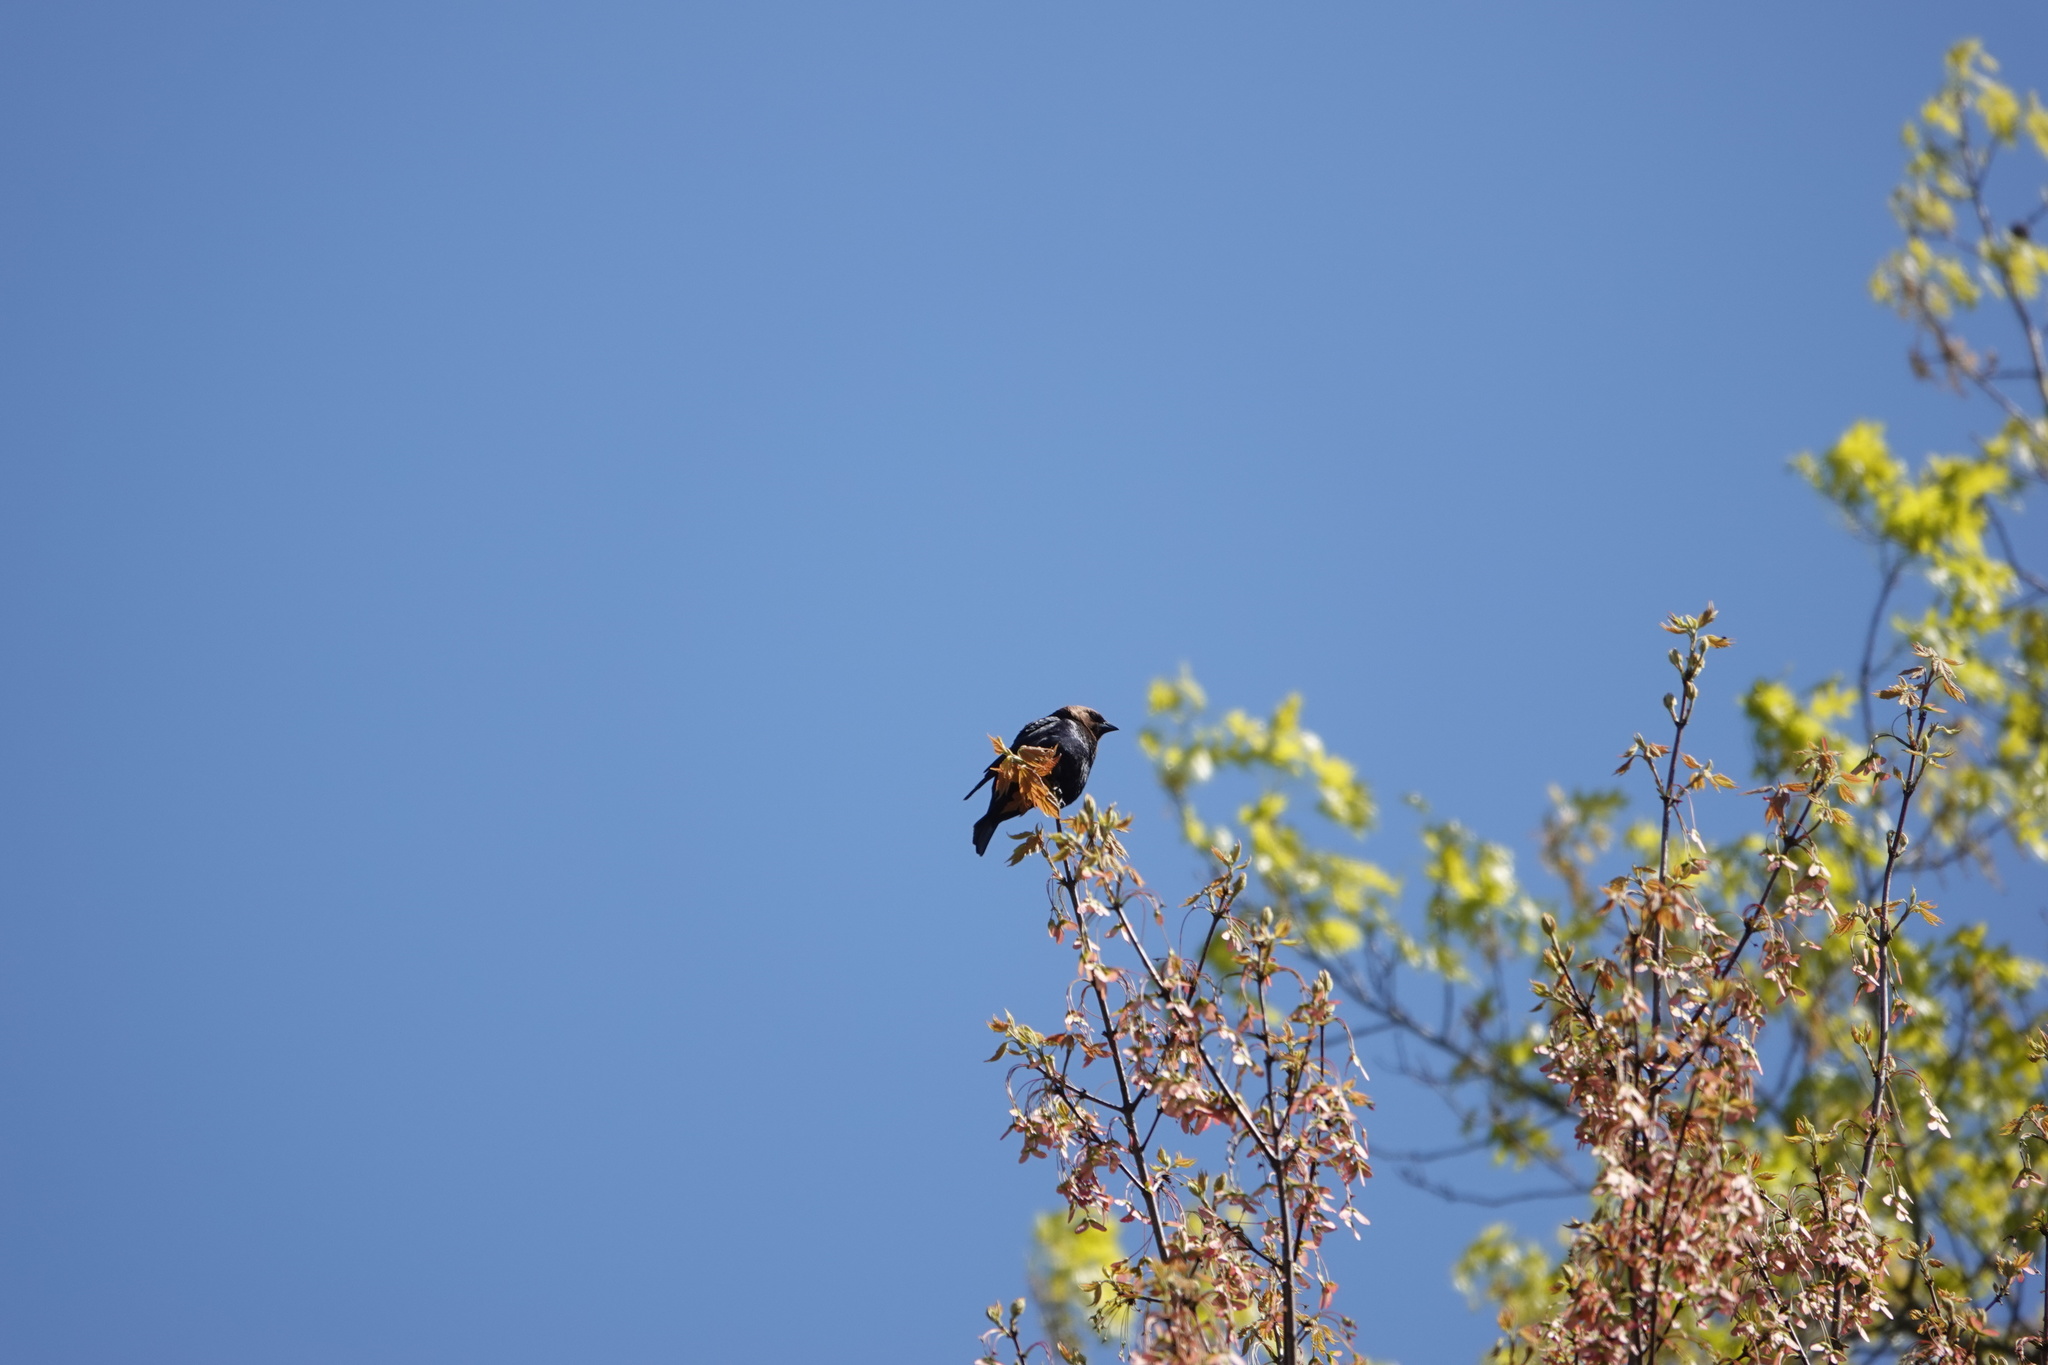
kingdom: Animalia
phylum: Chordata
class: Aves
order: Passeriformes
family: Icteridae
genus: Molothrus
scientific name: Molothrus ater
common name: Brown-headed cowbird
